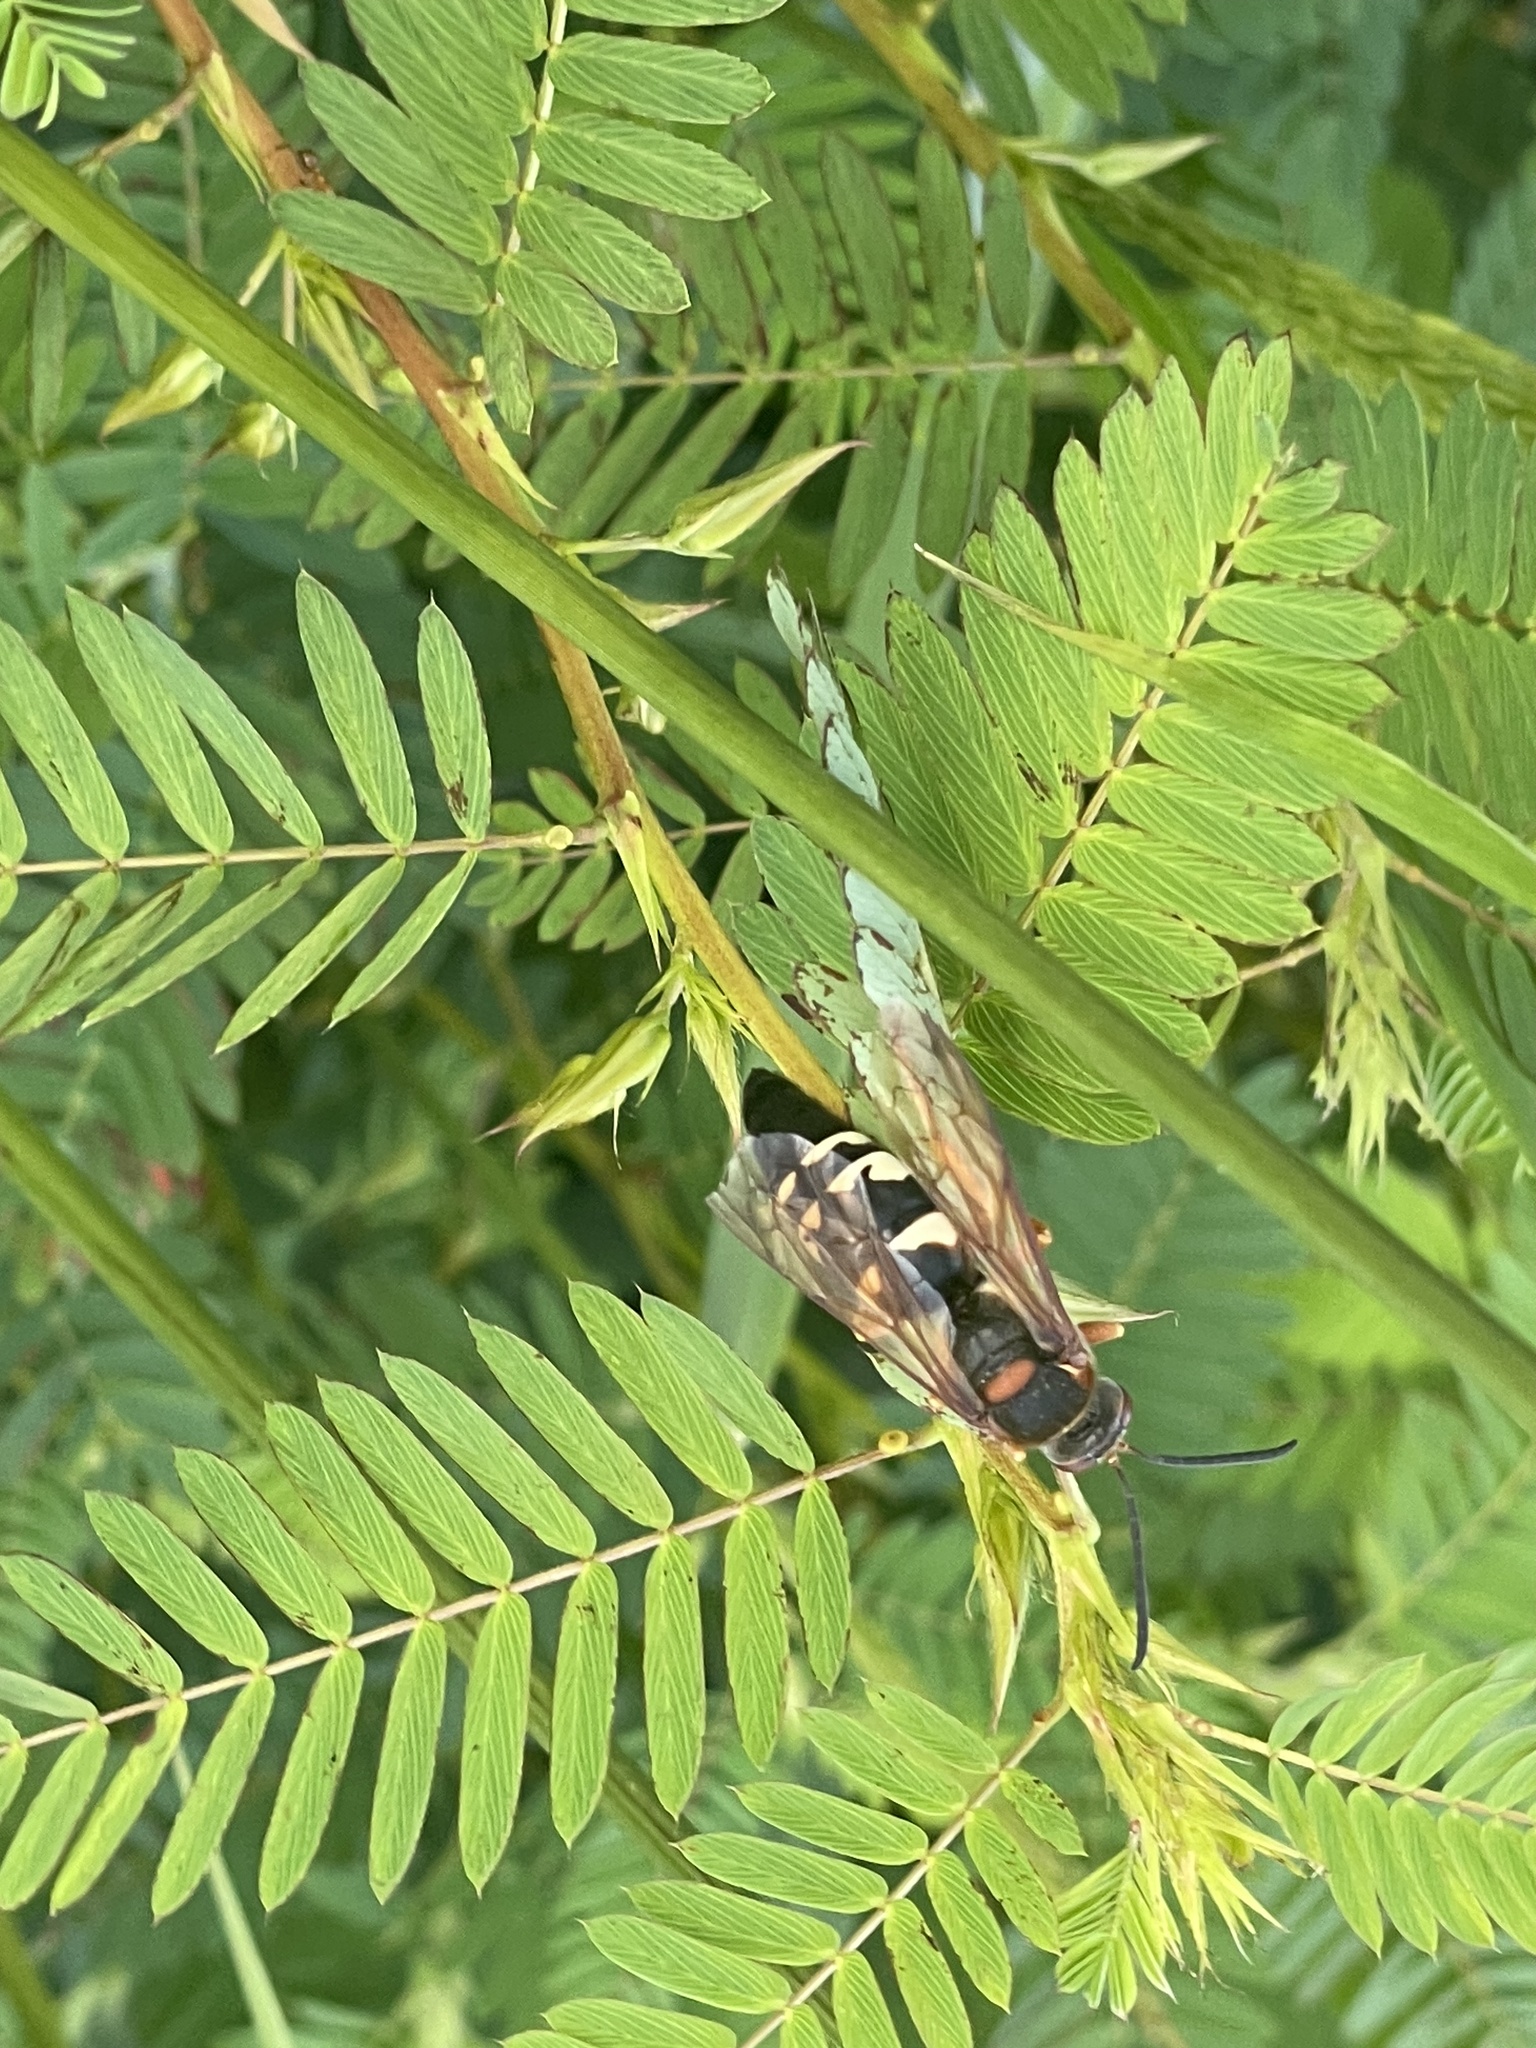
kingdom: Animalia
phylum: Arthropoda
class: Insecta
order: Hymenoptera
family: Crabronidae
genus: Sphecius
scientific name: Sphecius speciosus
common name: Cicada killer
